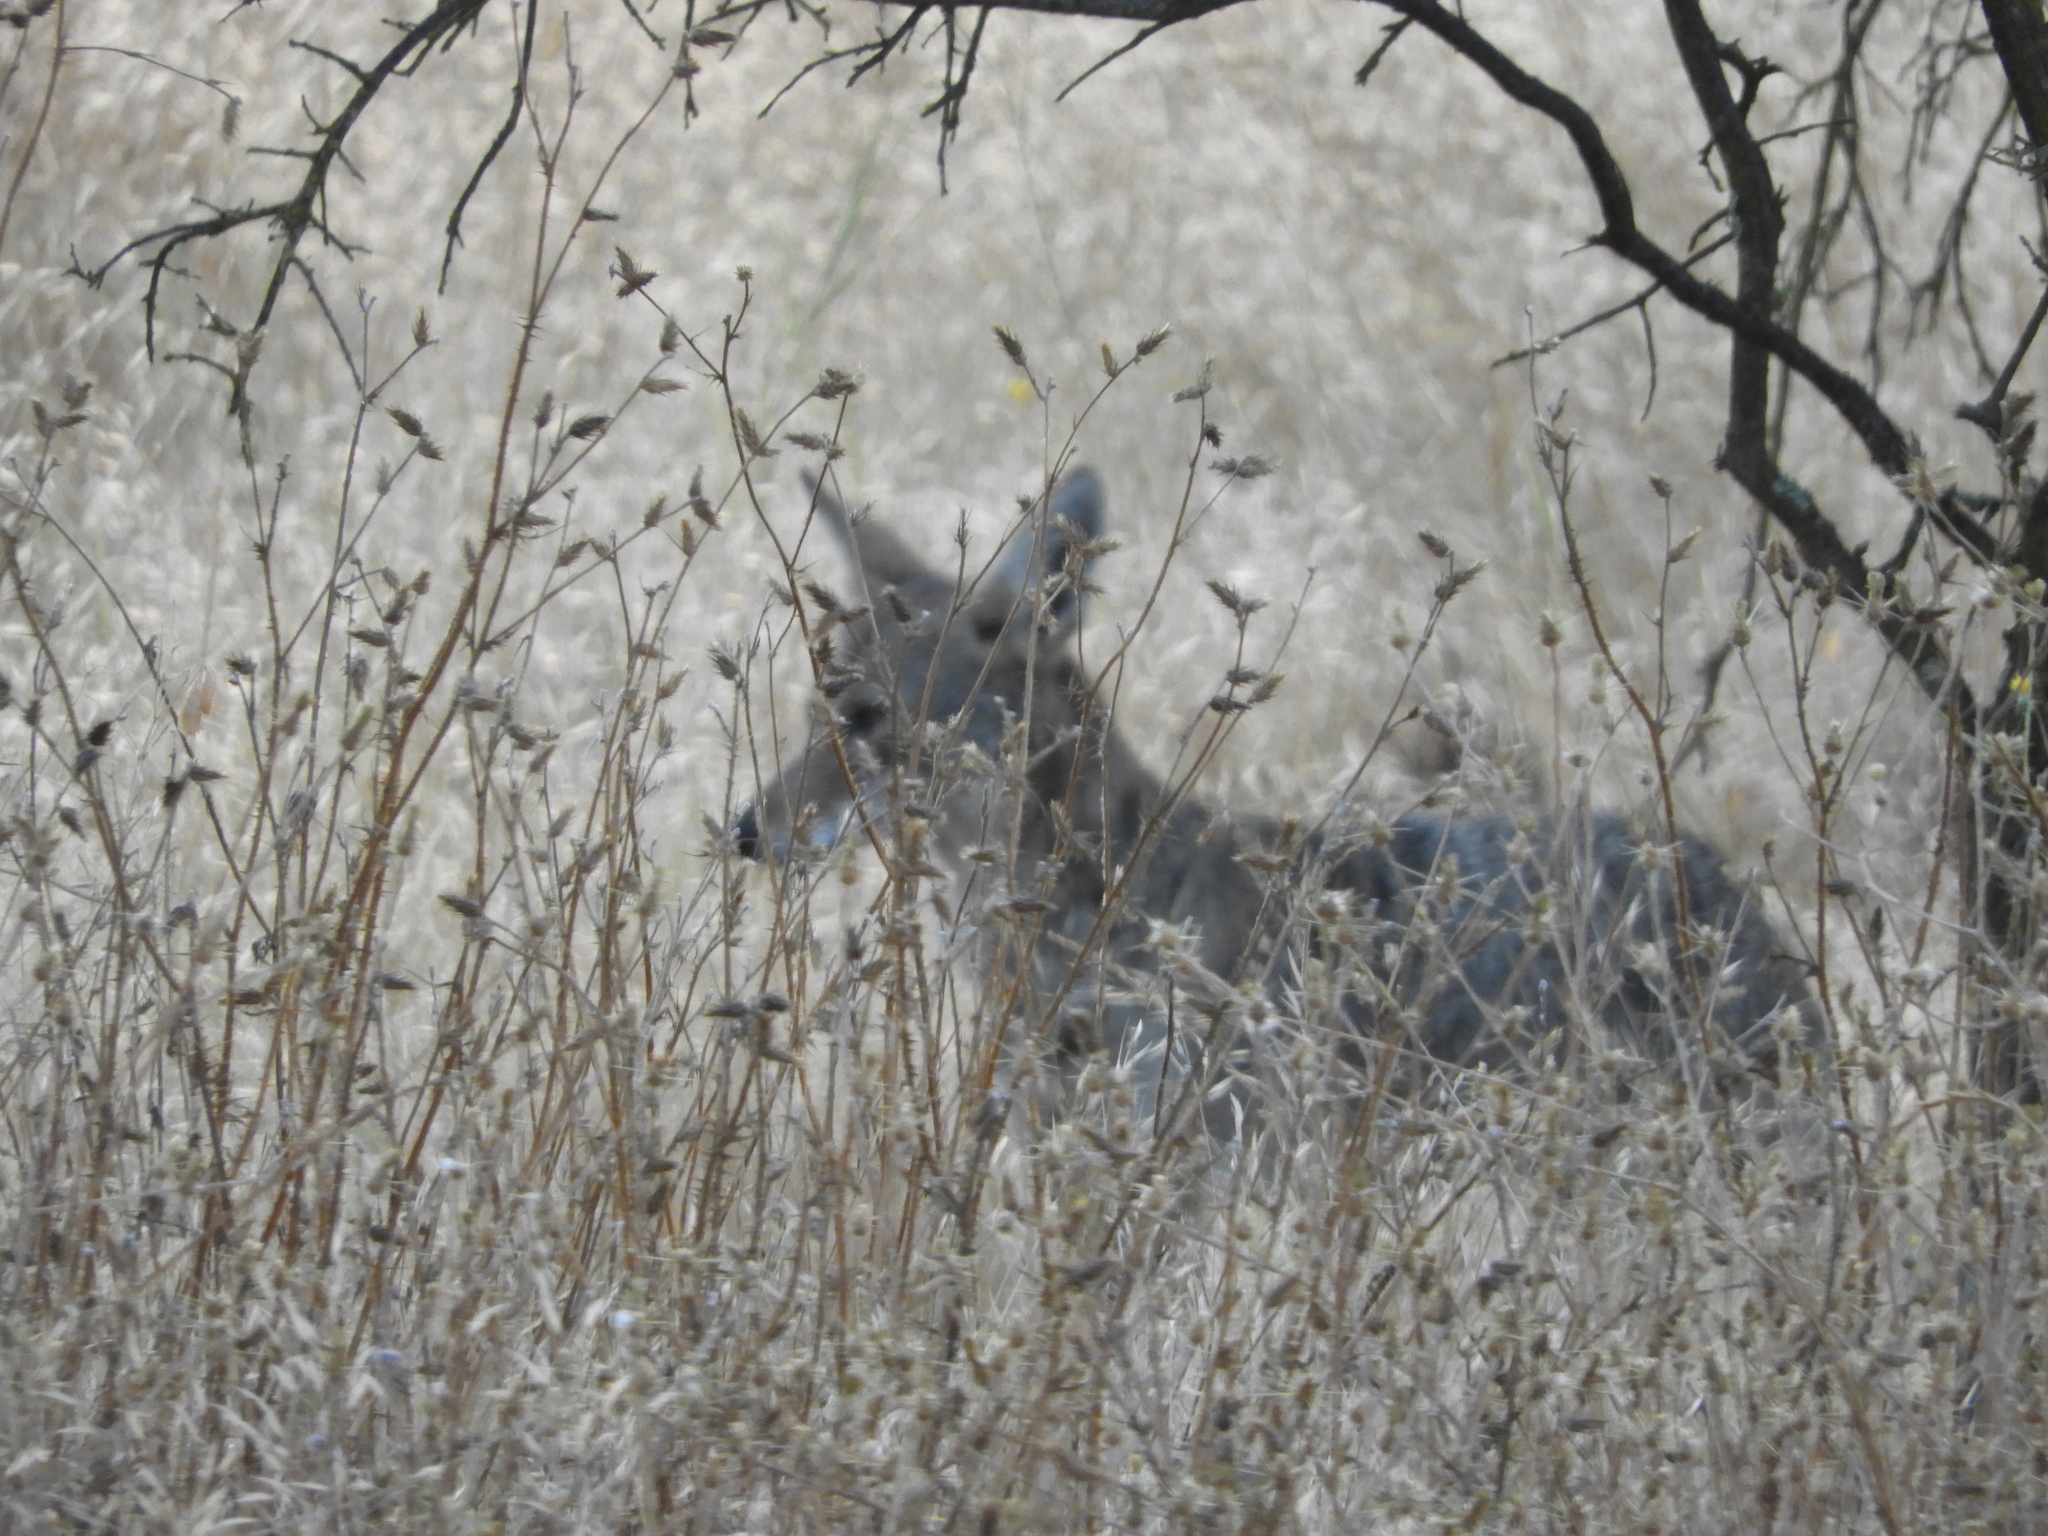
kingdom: Animalia
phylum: Chordata
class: Mammalia
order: Carnivora
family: Canidae
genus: Canis
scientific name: Canis latrans
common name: Coyote
